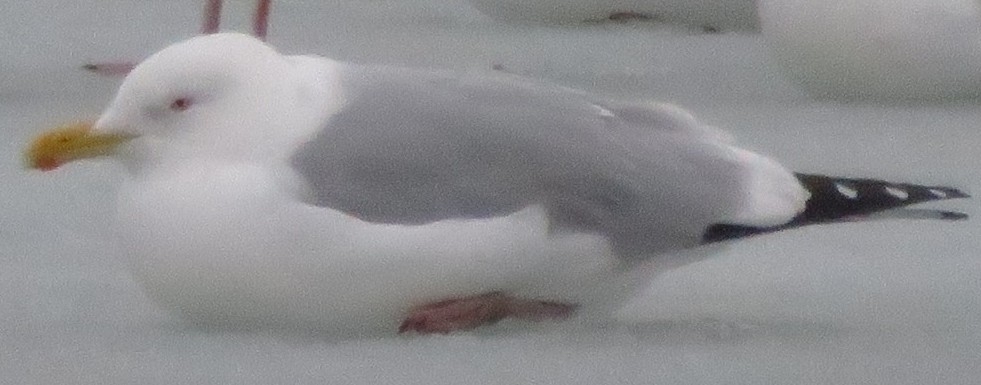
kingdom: Animalia
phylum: Chordata
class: Aves
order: Charadriiformes
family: Laridae
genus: Larus
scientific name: Larus argentatus
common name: Herring gull
